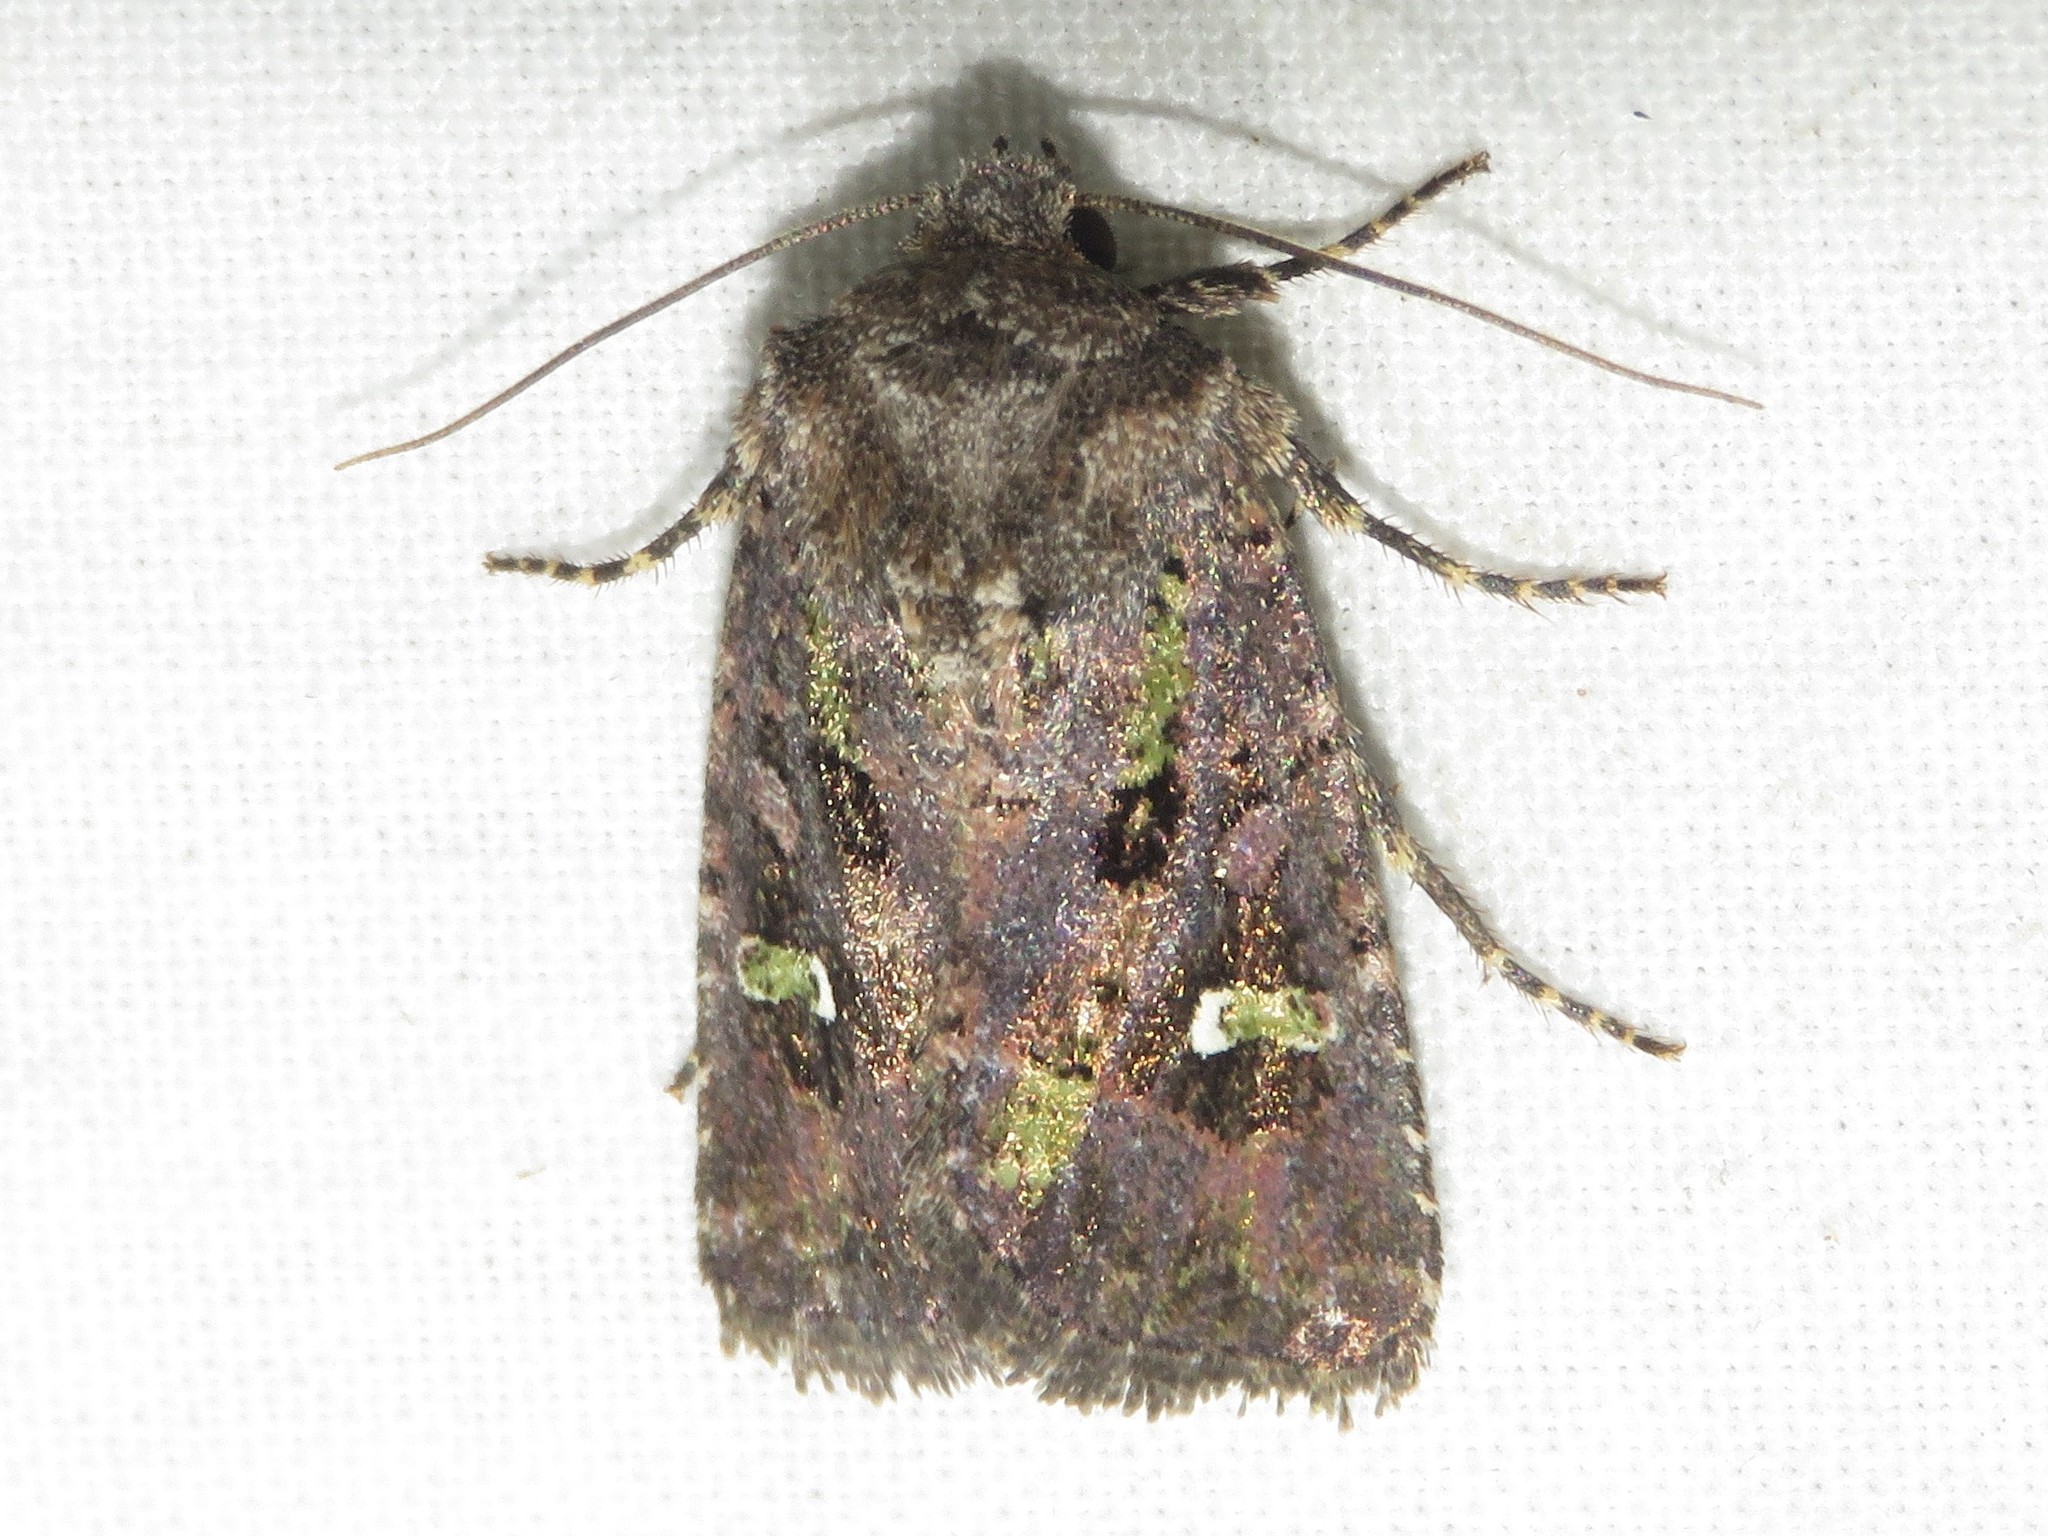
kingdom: Animalia
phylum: Arthropoda
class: Insecta
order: Lepidoptera
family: Noctuidae
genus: Lacinipolia
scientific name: Lacinipolia renigera
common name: Kidney-spotted minor
